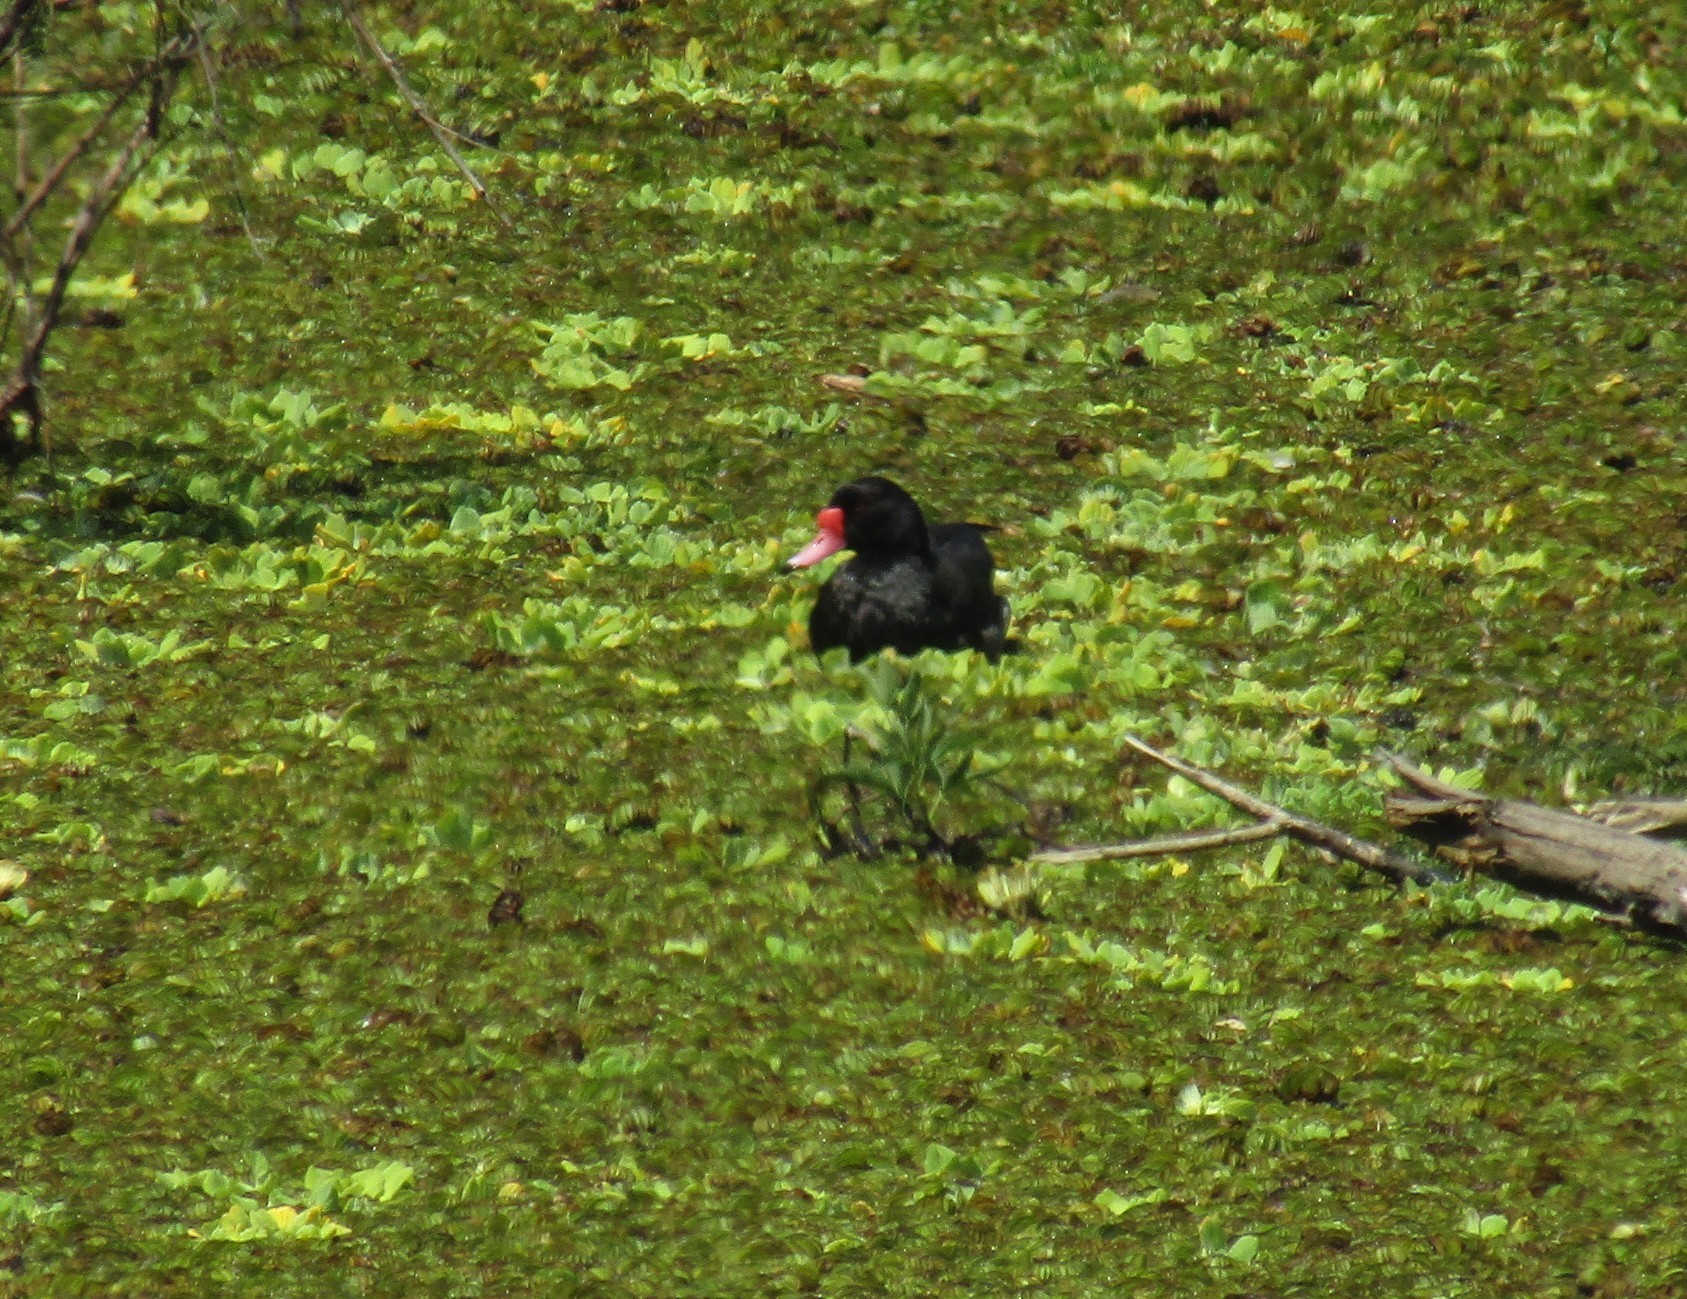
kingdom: Animalia
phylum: Chordata
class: Aves
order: Anseriformes
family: Anatidae
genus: Netta
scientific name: Netta peposaca
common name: Rosy-billed pochard
